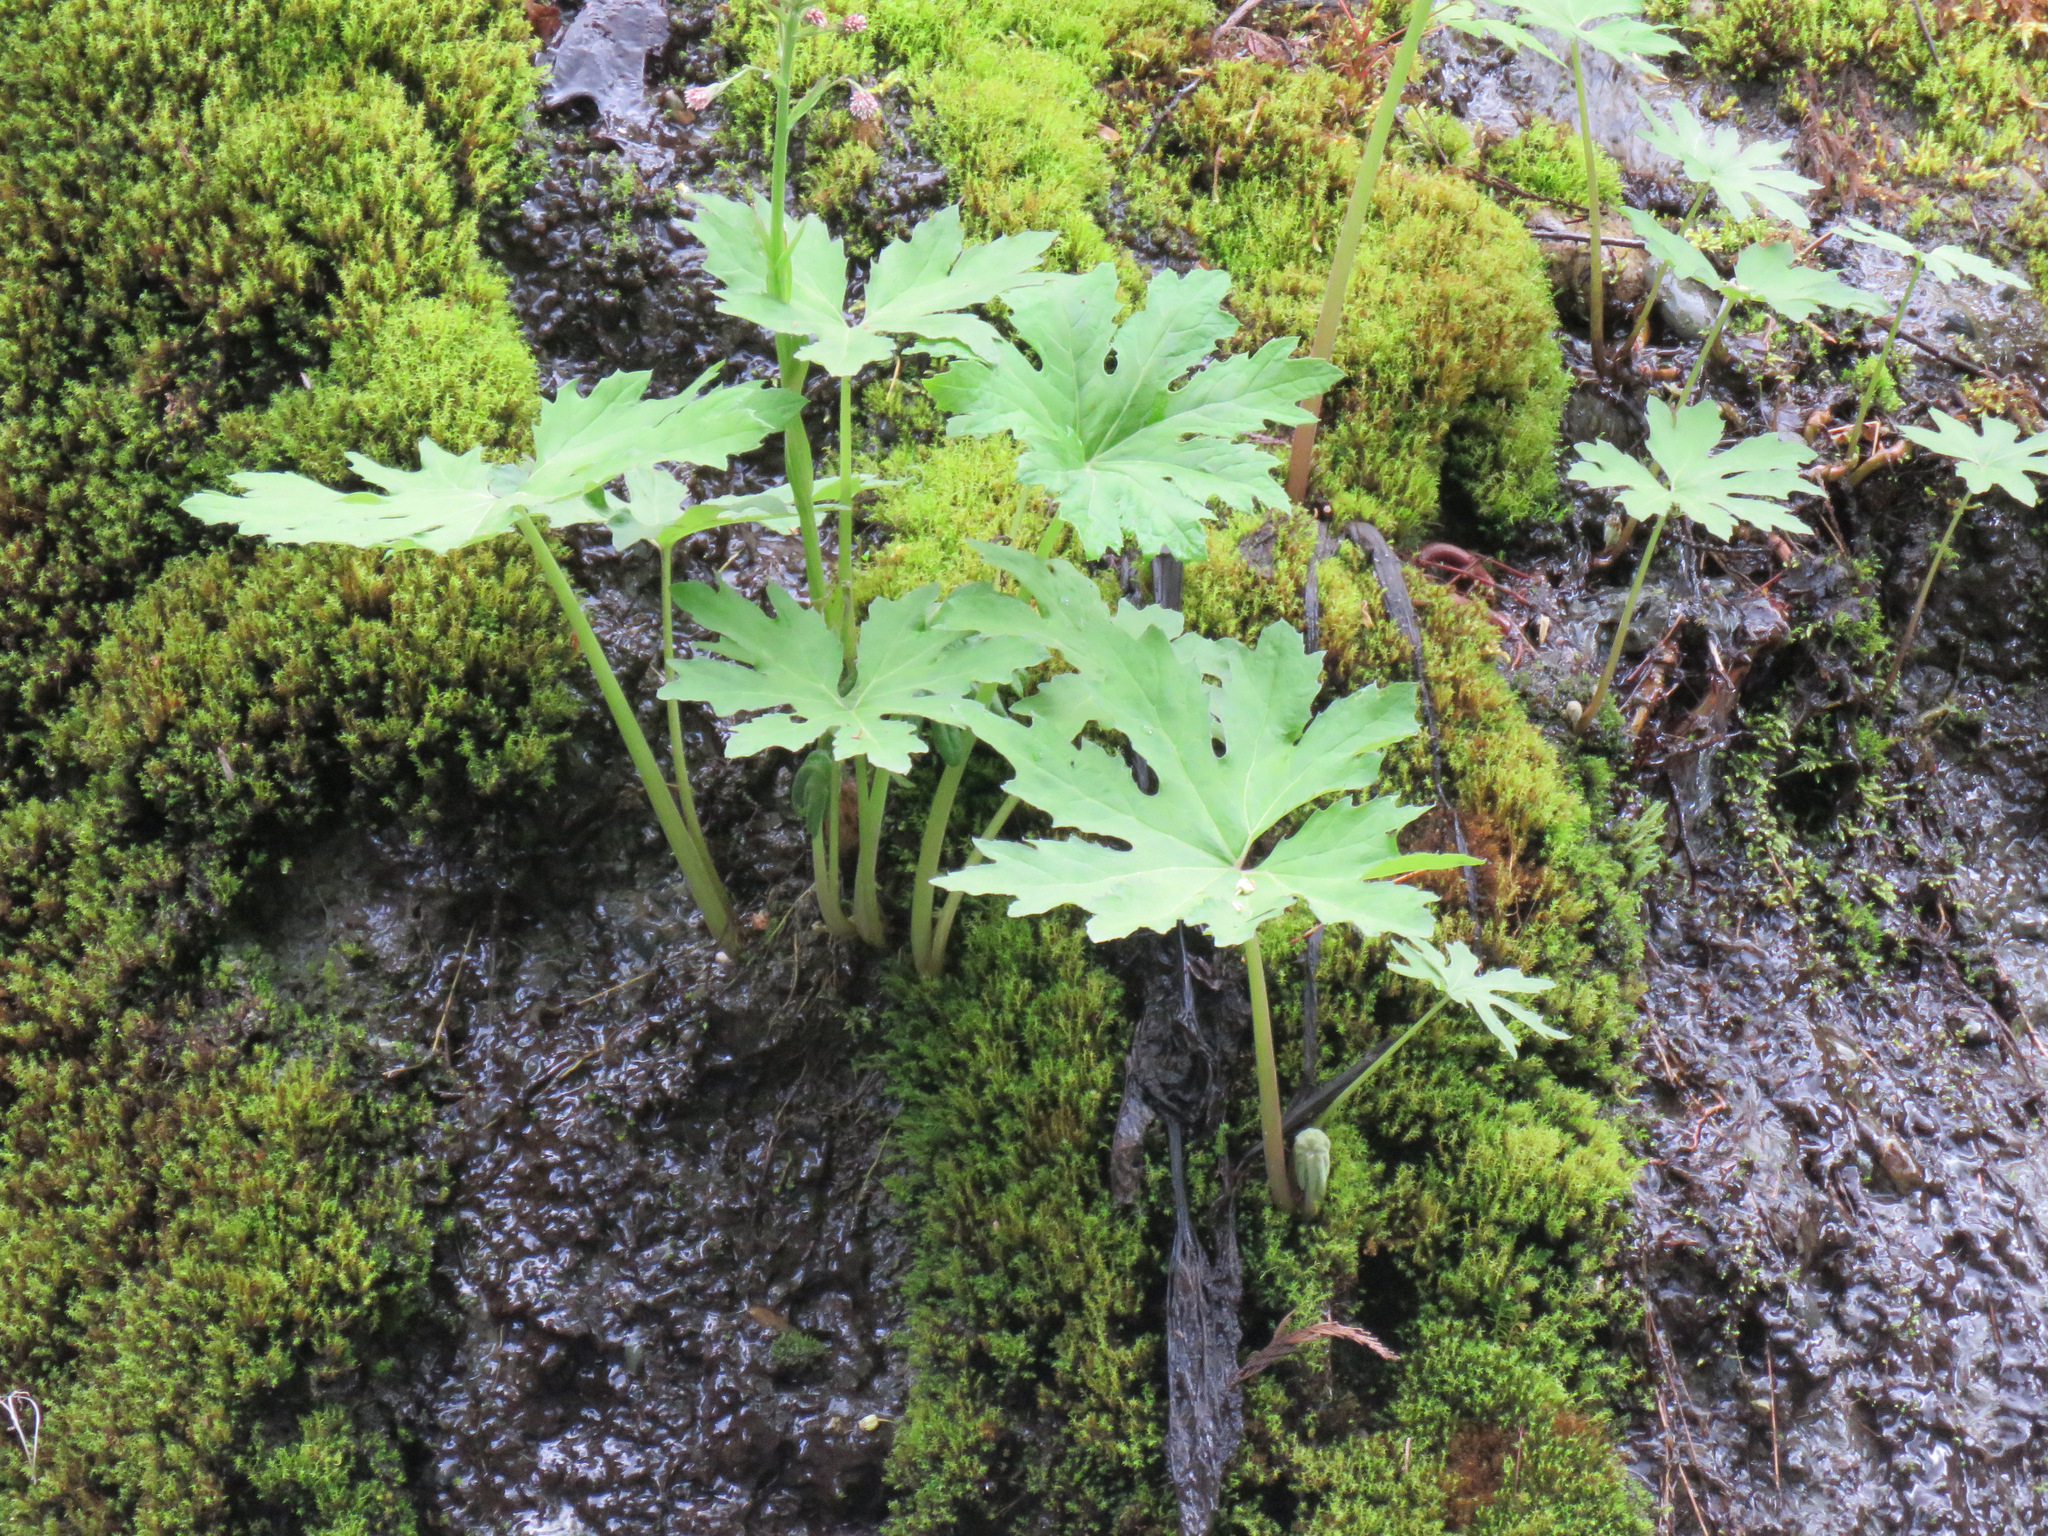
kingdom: Plantae
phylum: Tracheophyta
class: Magnoliopsida
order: Asterales
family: Asteraceae
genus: Petasites
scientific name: Petasites frigidus
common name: Arctic butterbur
